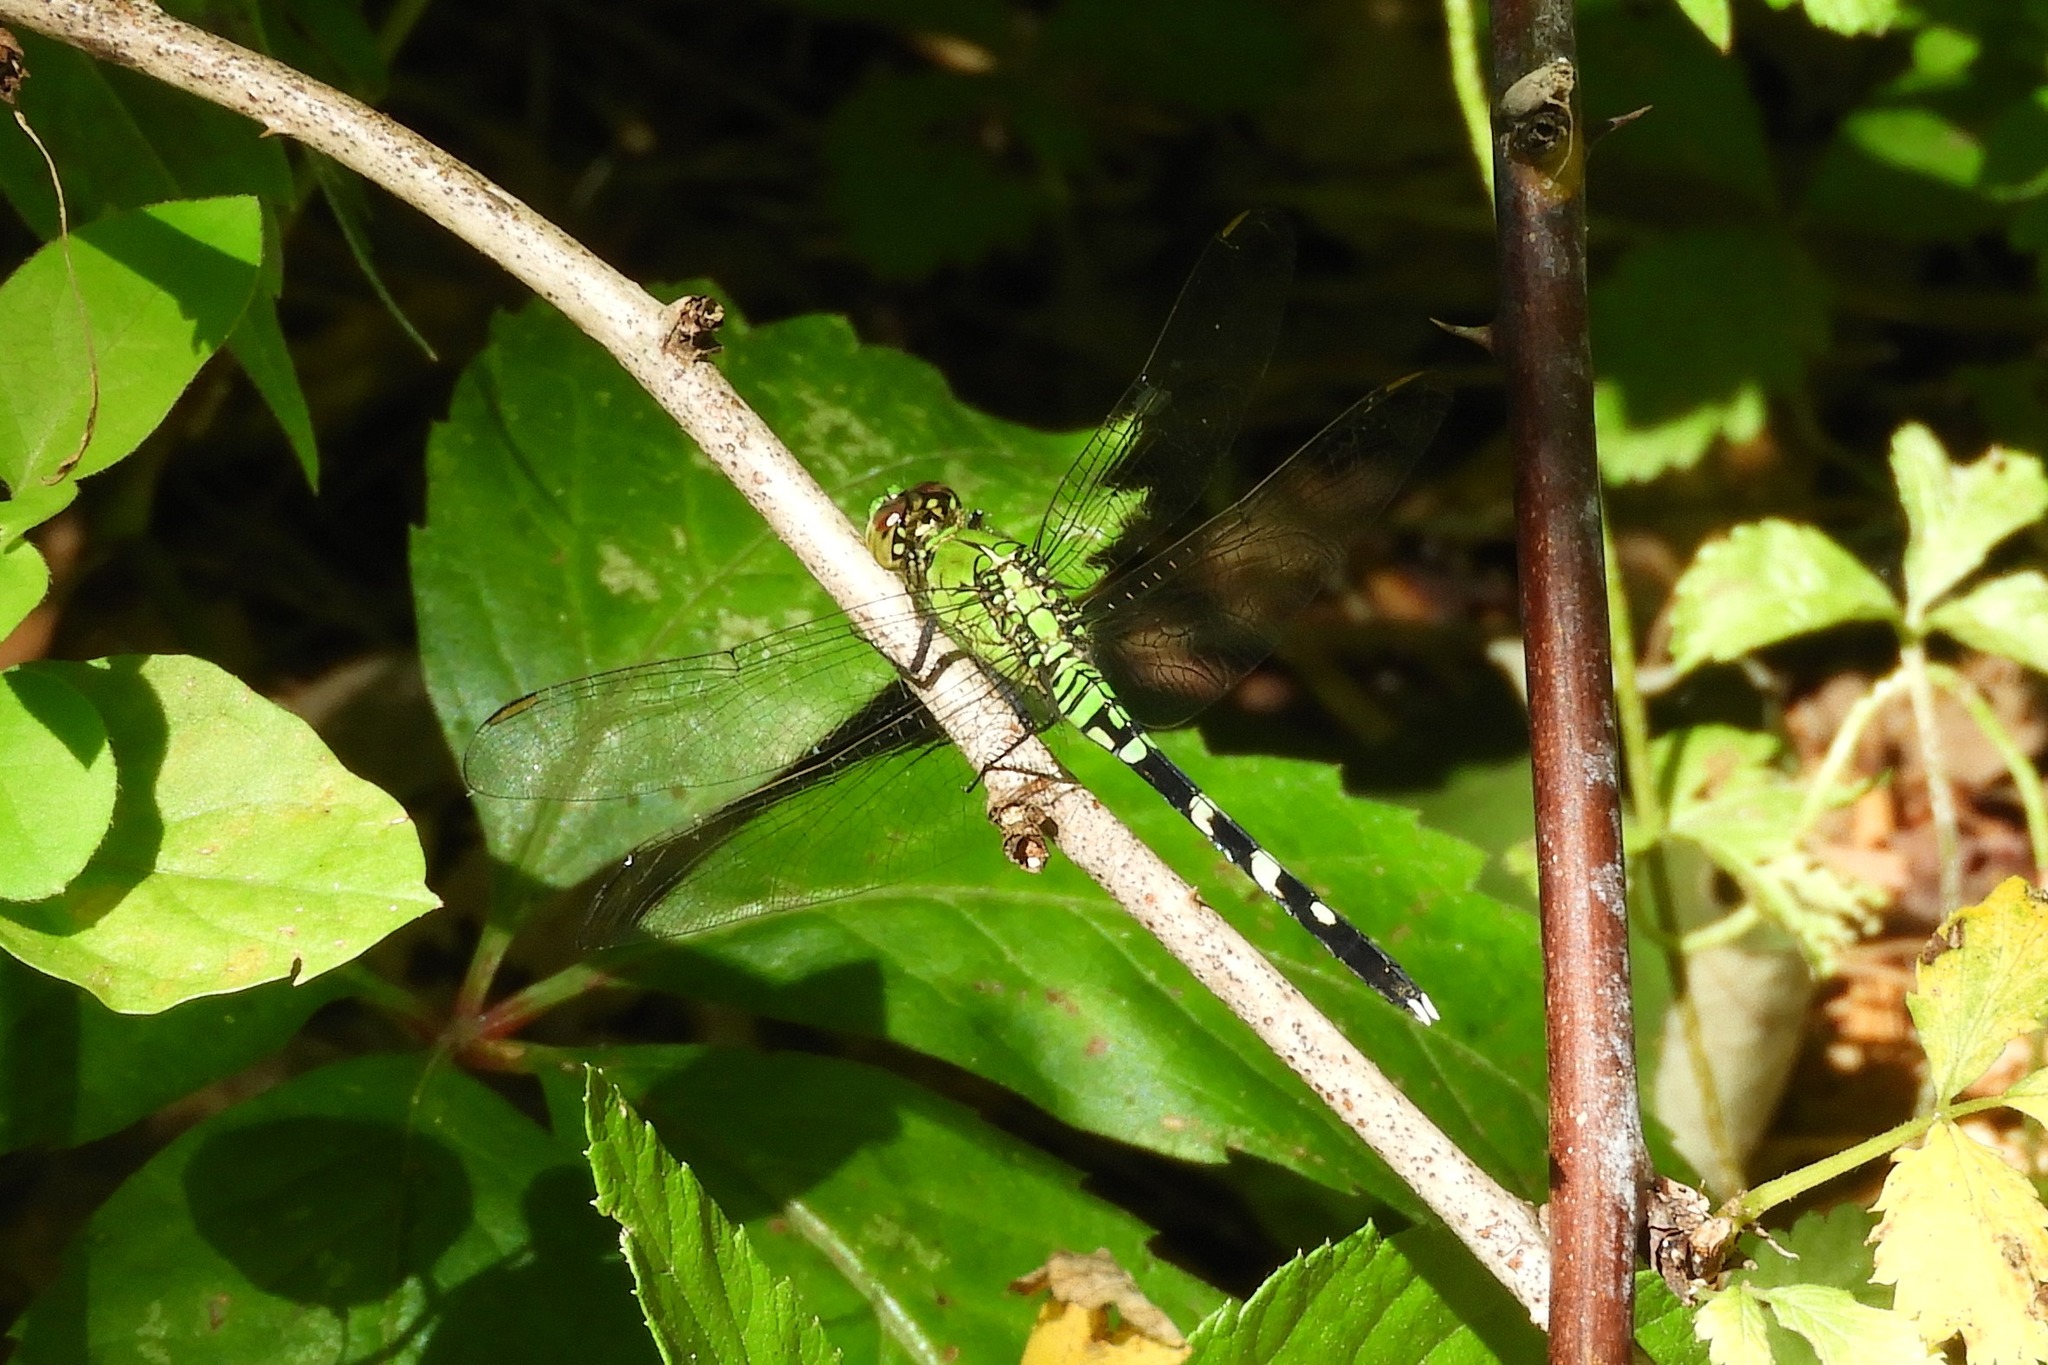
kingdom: Animalia
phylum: Arthropoda
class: Insecta
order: Odonata
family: Libellulidae
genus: Erythemis
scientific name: Erythemis simplicicollis
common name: Eastern pondhawk
